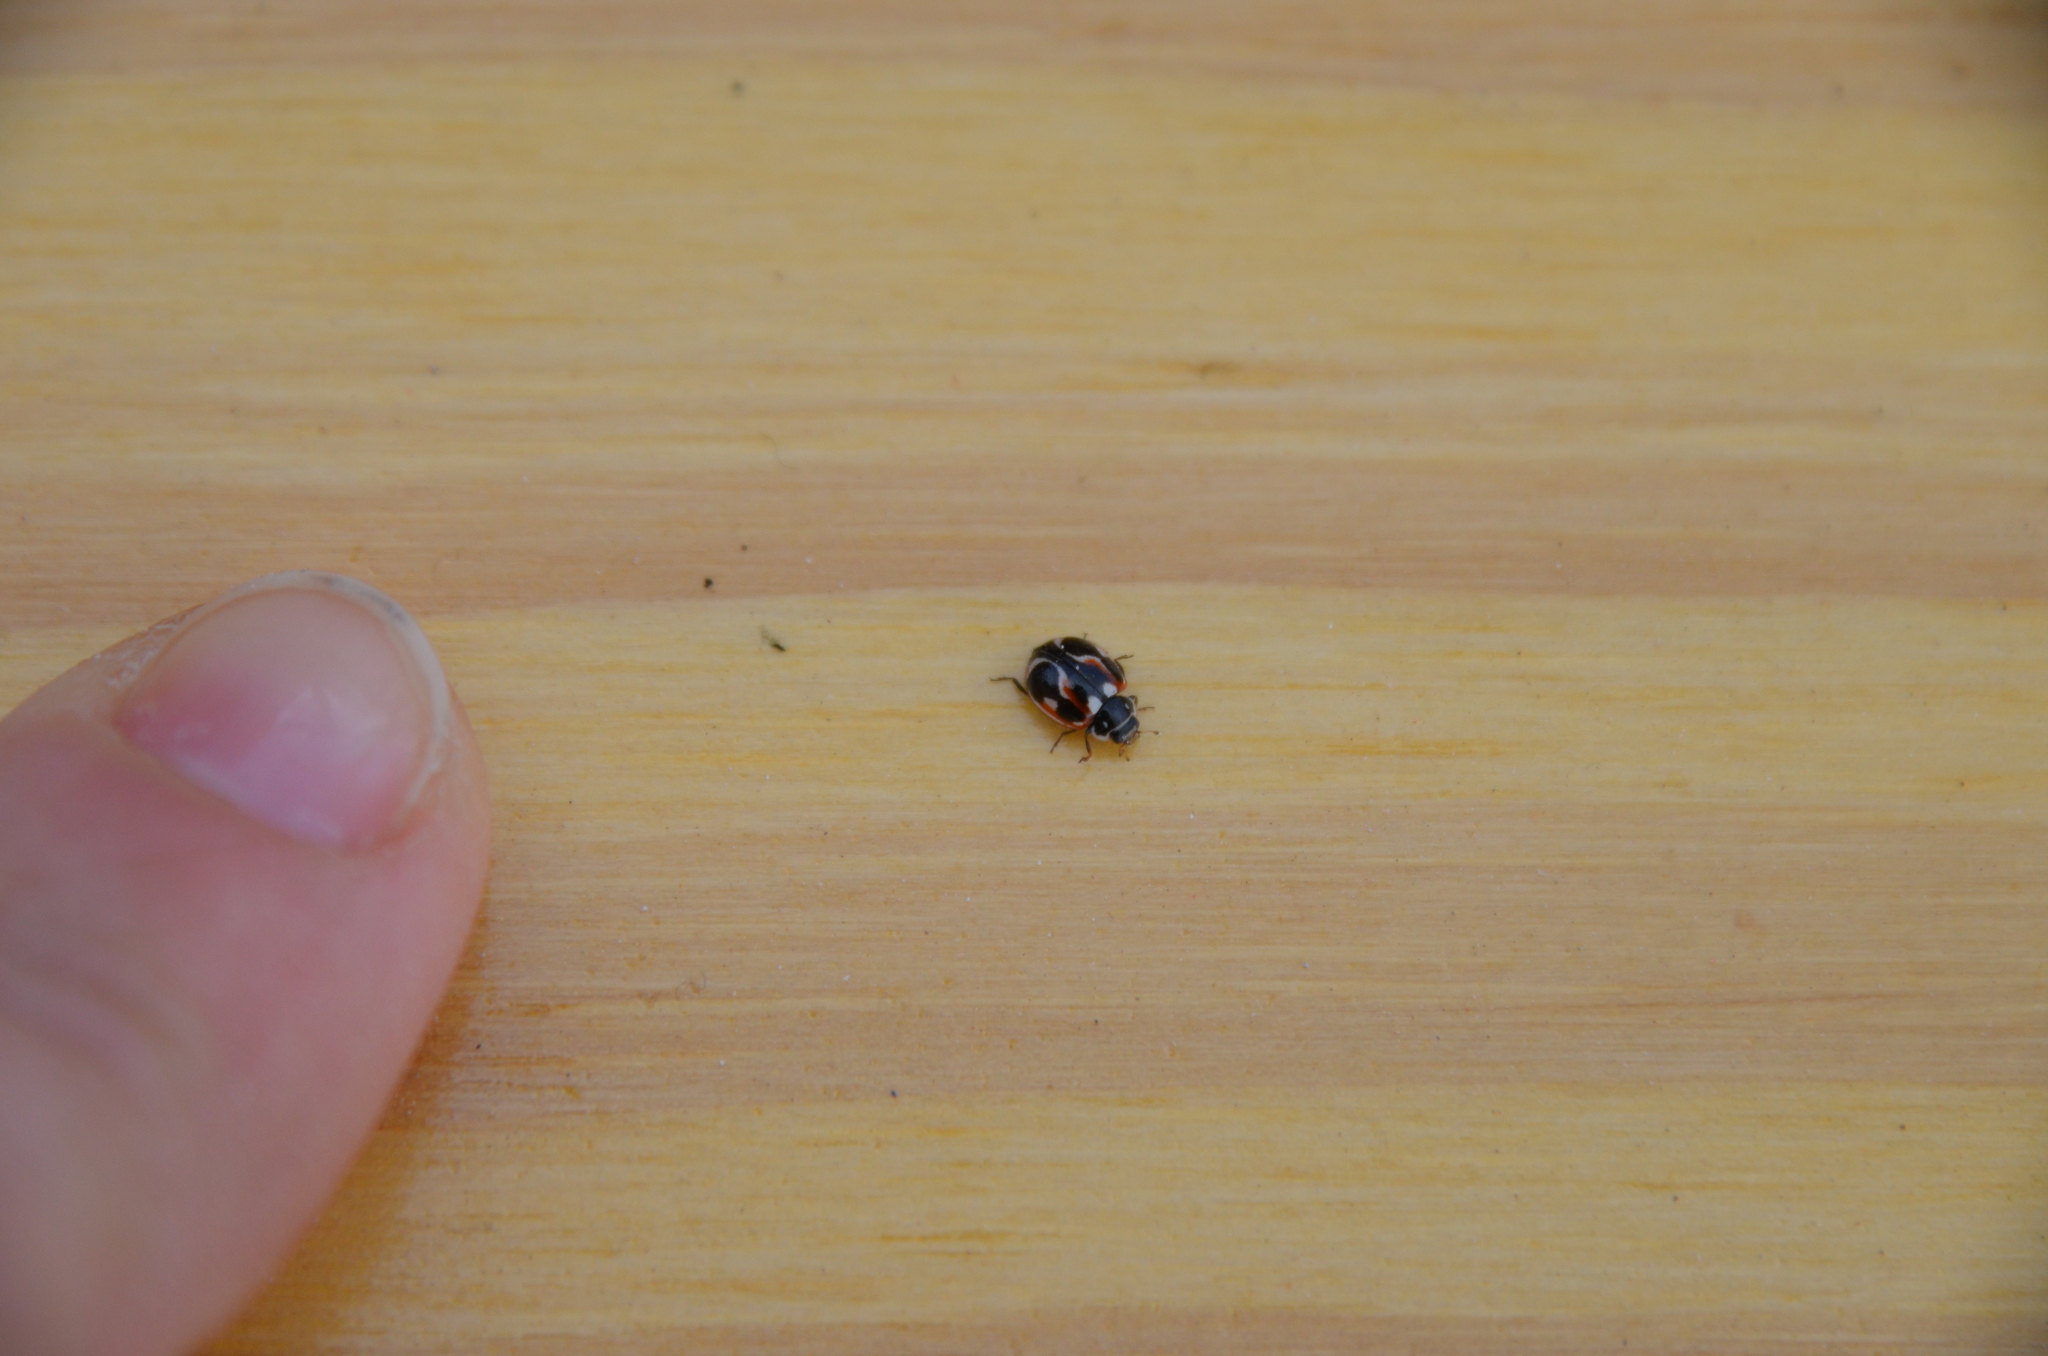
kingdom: Animalia
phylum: Arthropoda
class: Insecta
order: Coleoptera
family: Coccinellidae
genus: Cycloneda
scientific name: Cycloneda ancoralis
